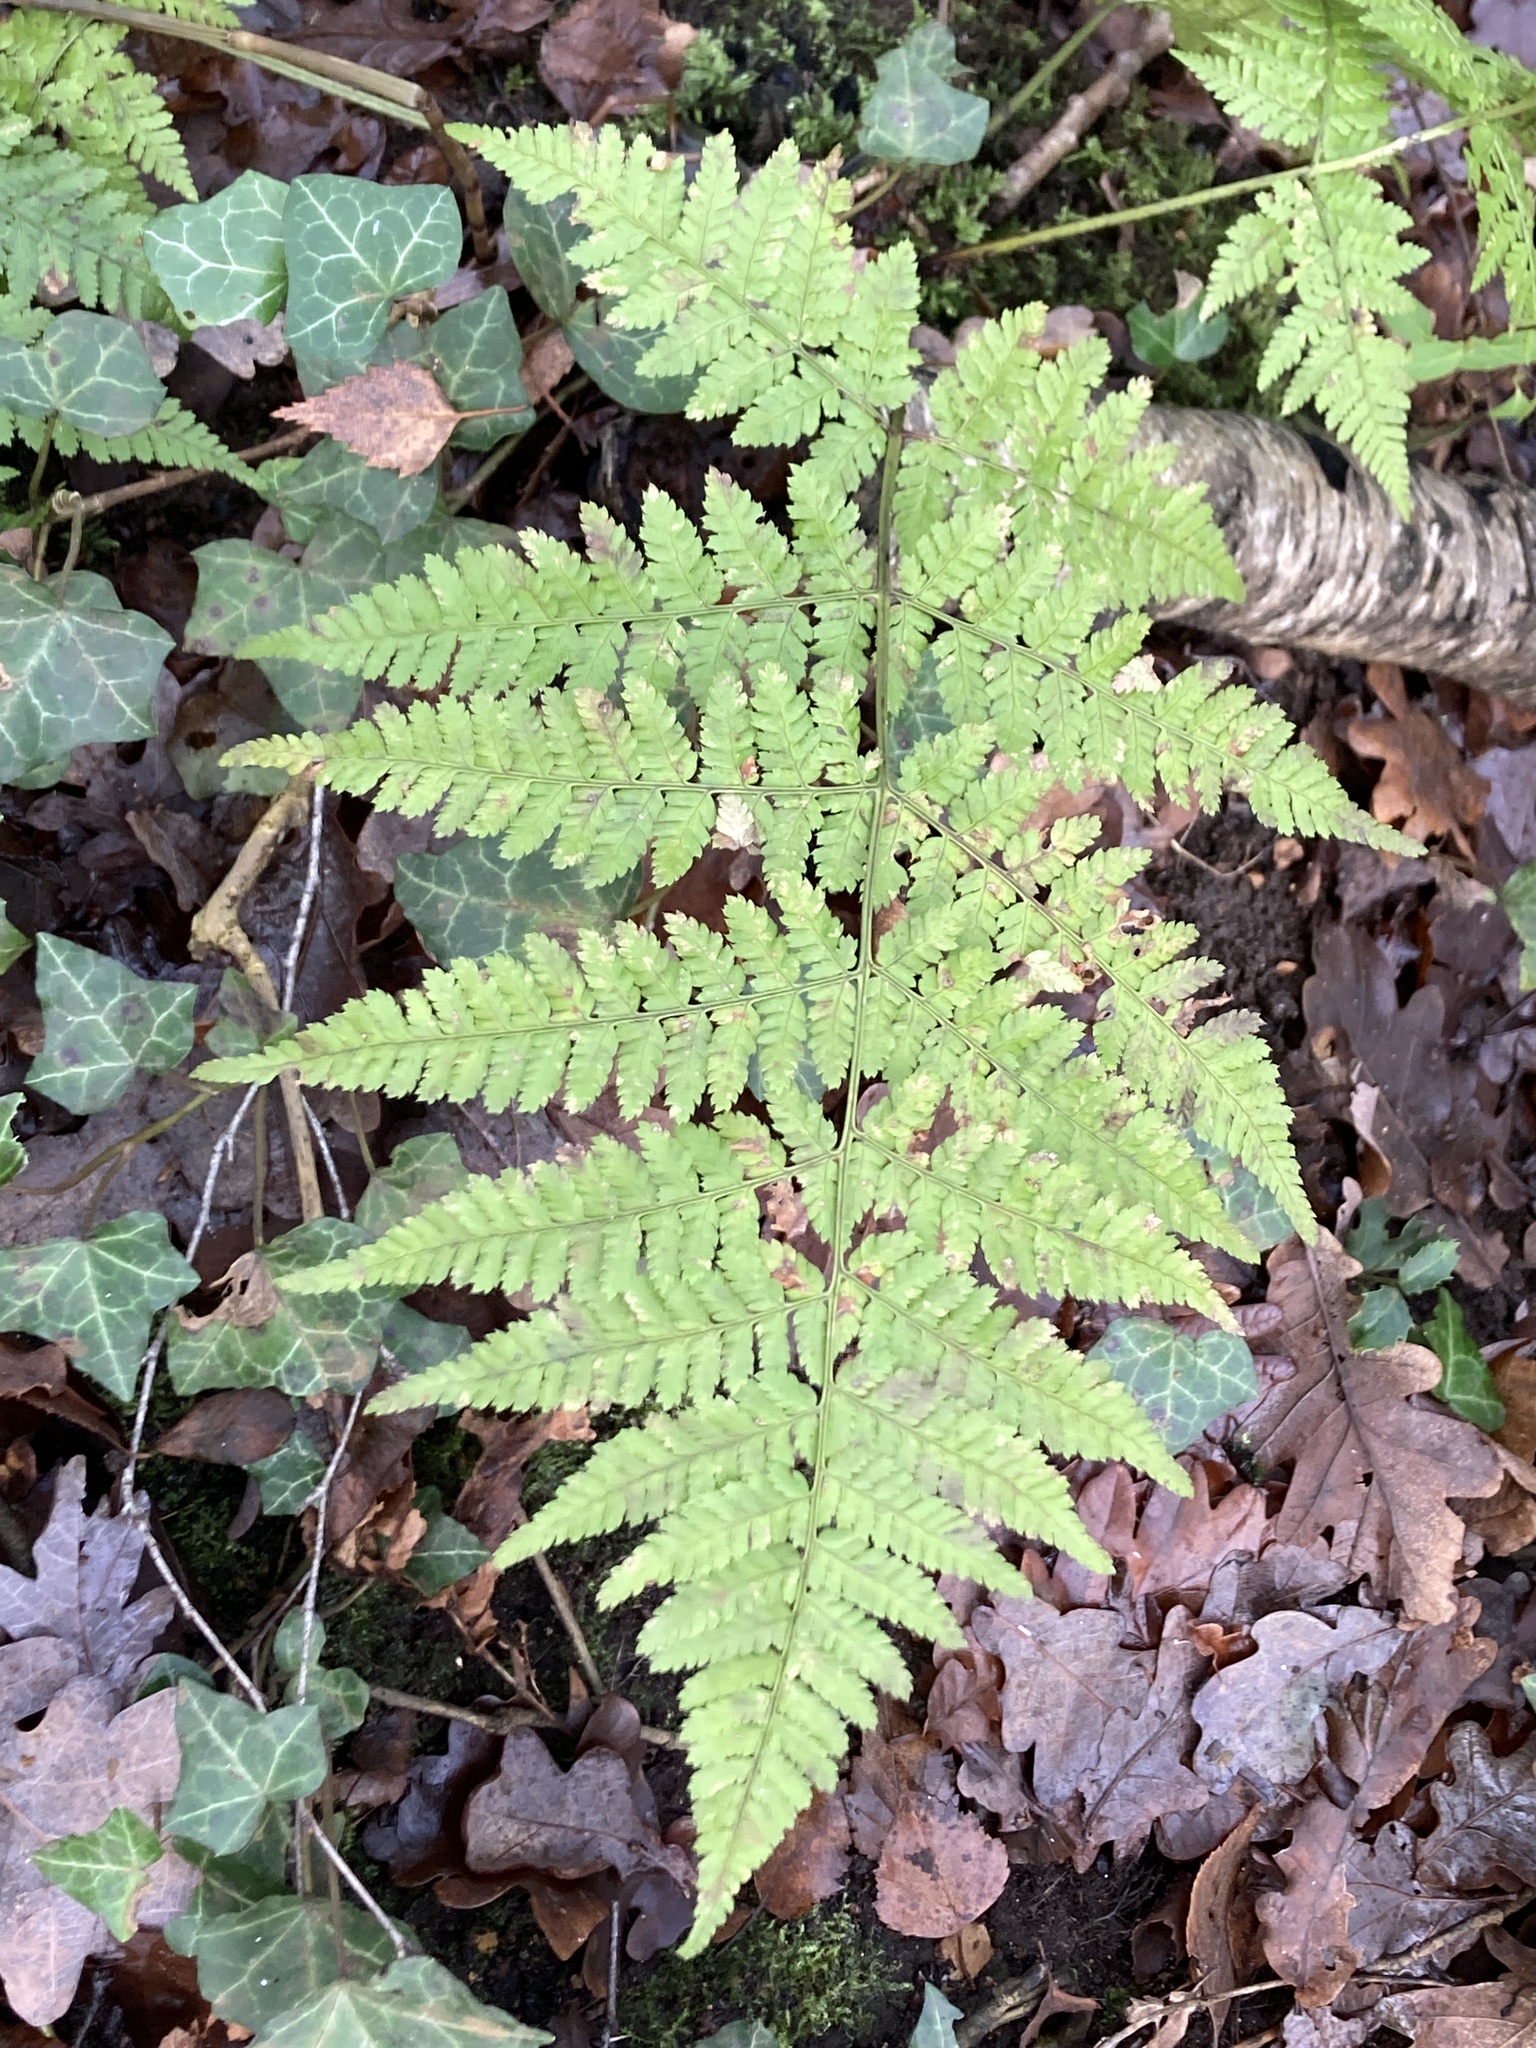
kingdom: Plantae
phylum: Tracheophyta
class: Polypodiopsida
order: Polypodiales
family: Dryopteridaceae
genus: Dryopteris
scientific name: Dryopteris dilatata
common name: Broad buckler-fern
